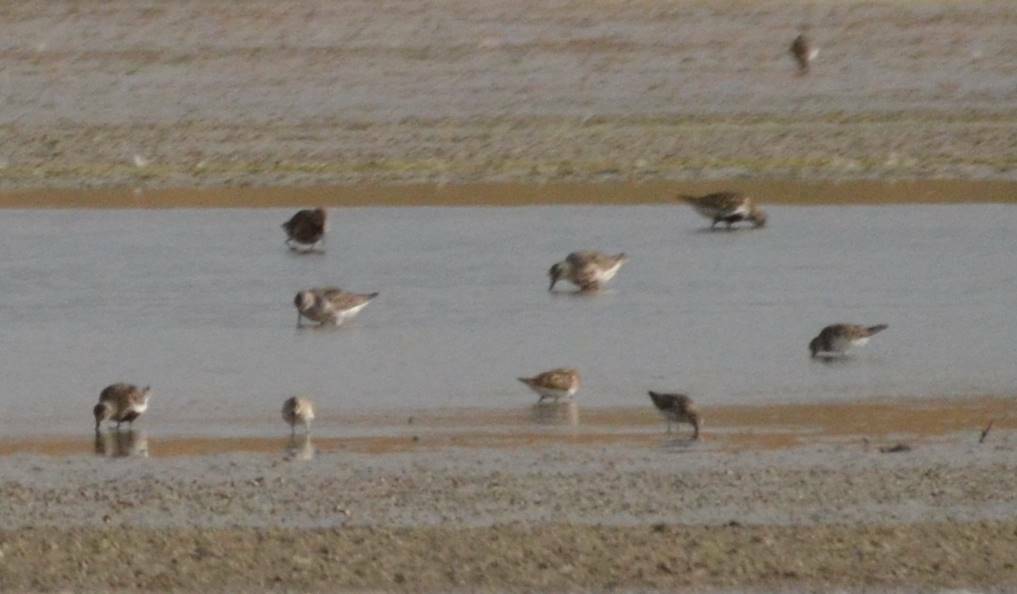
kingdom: Animalia
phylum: Chordata
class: Aves
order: Charadriiformes
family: Scolopacidae
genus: Calidris
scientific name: Calidris ferruginea
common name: Curlew sandpiper
